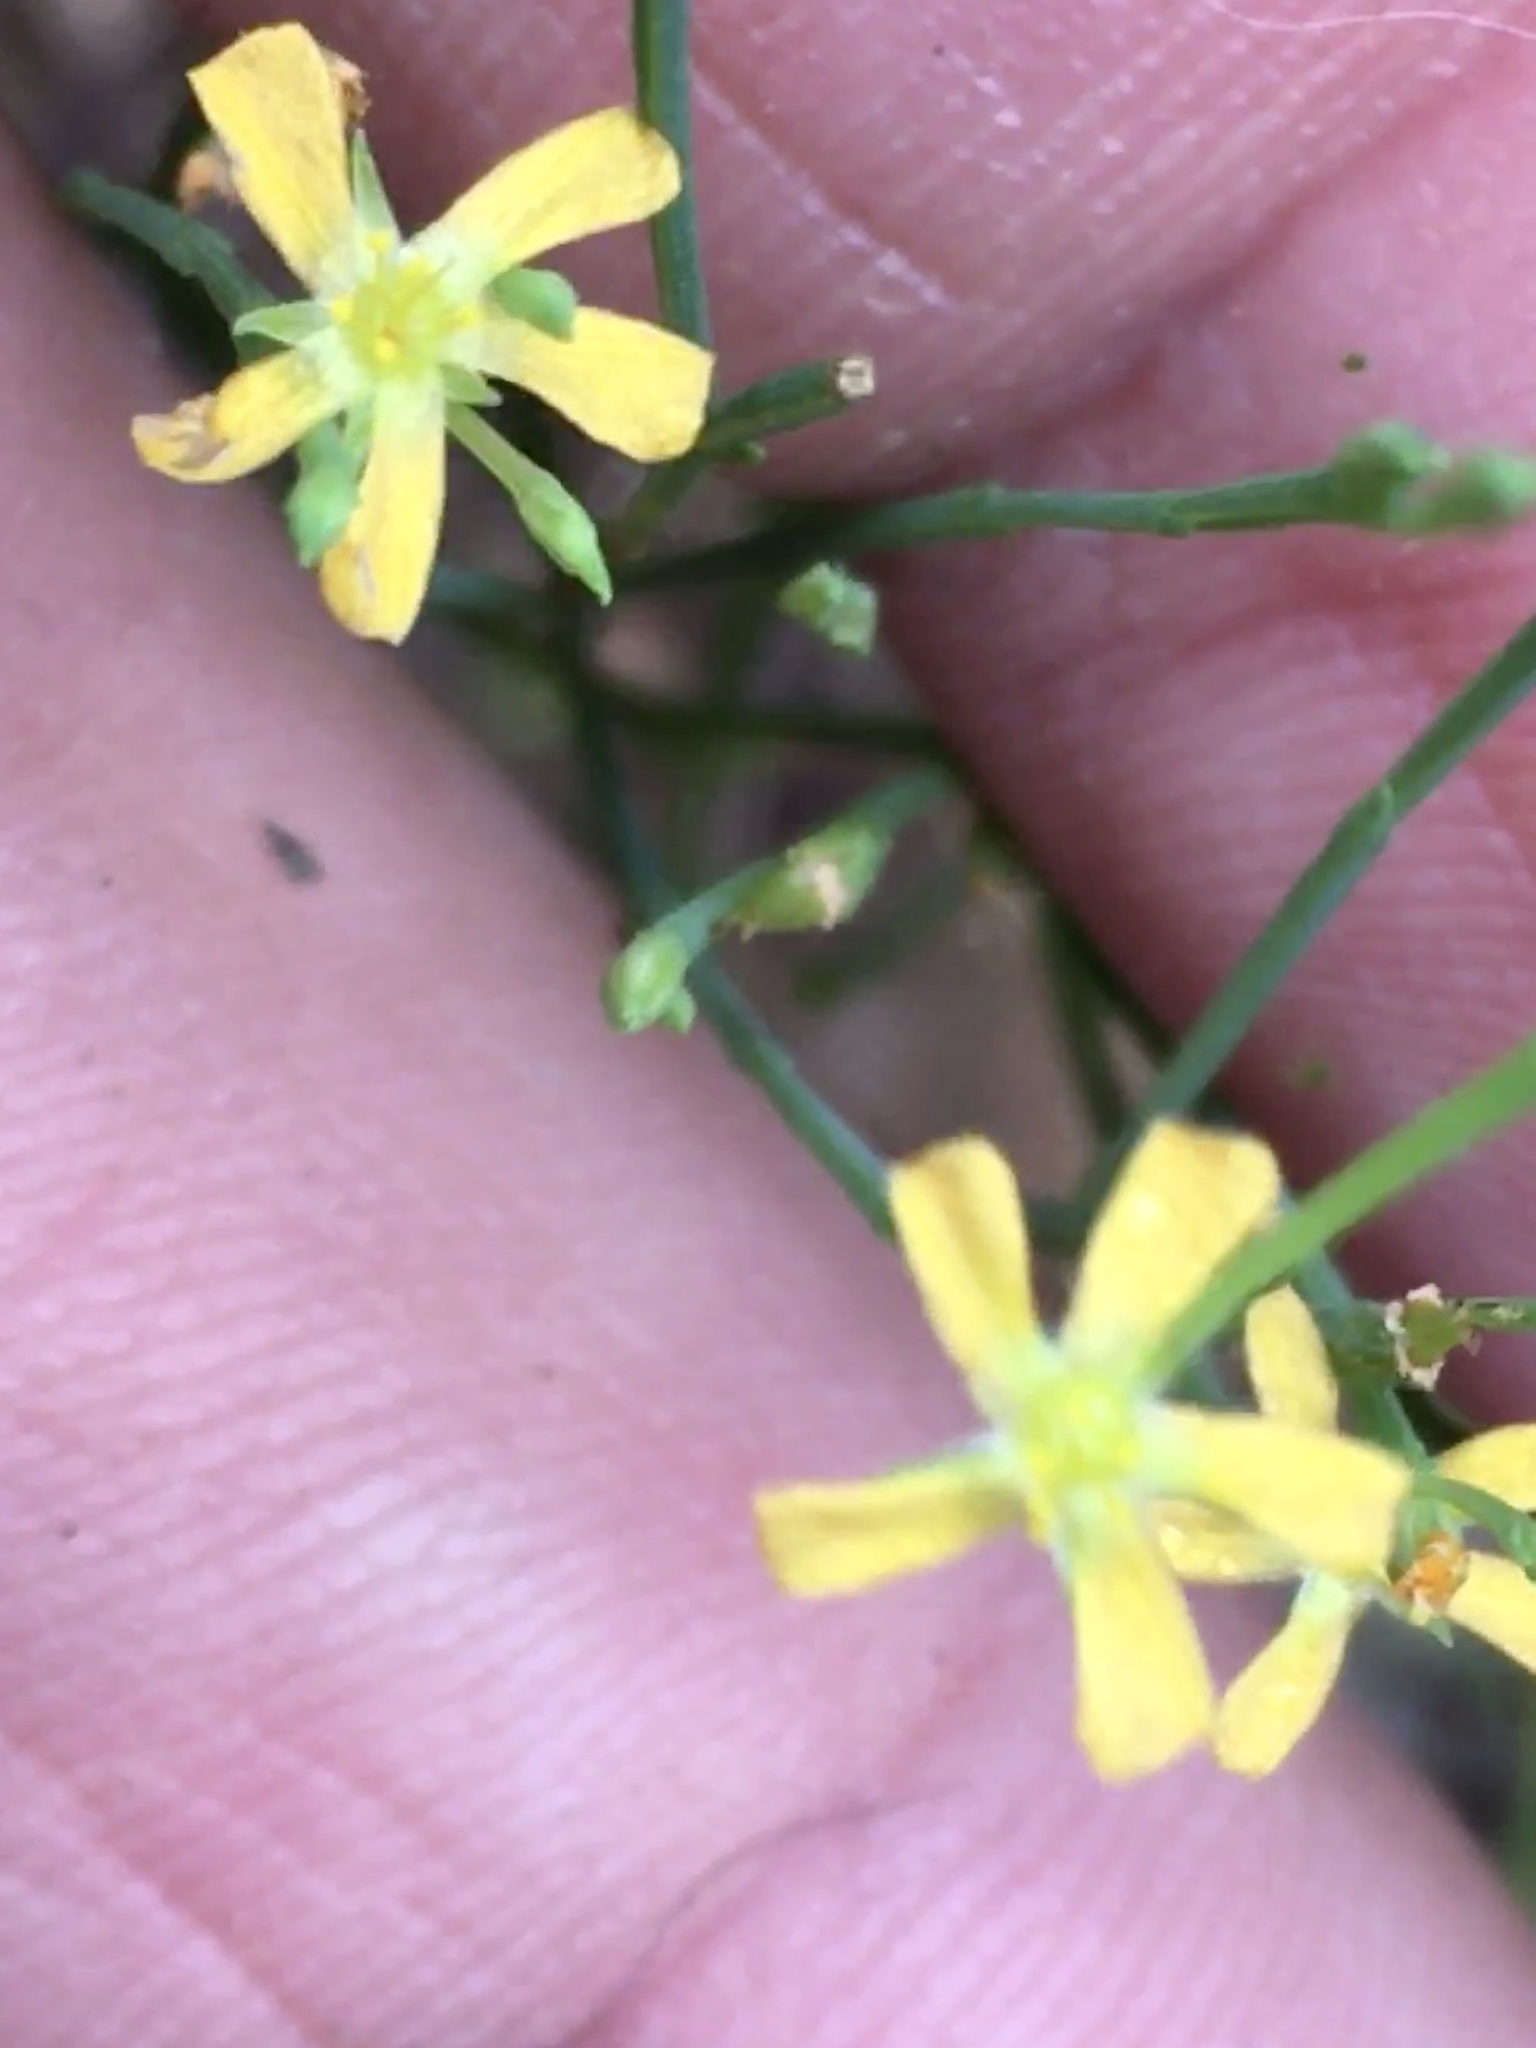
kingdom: Plantae
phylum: Tracheophyta
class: Magnoliopsida
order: Malpighiales
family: Hypericaceae
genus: Hypericum
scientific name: Hypericum gentianoides
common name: Gentian-leaved st. john's-wort
